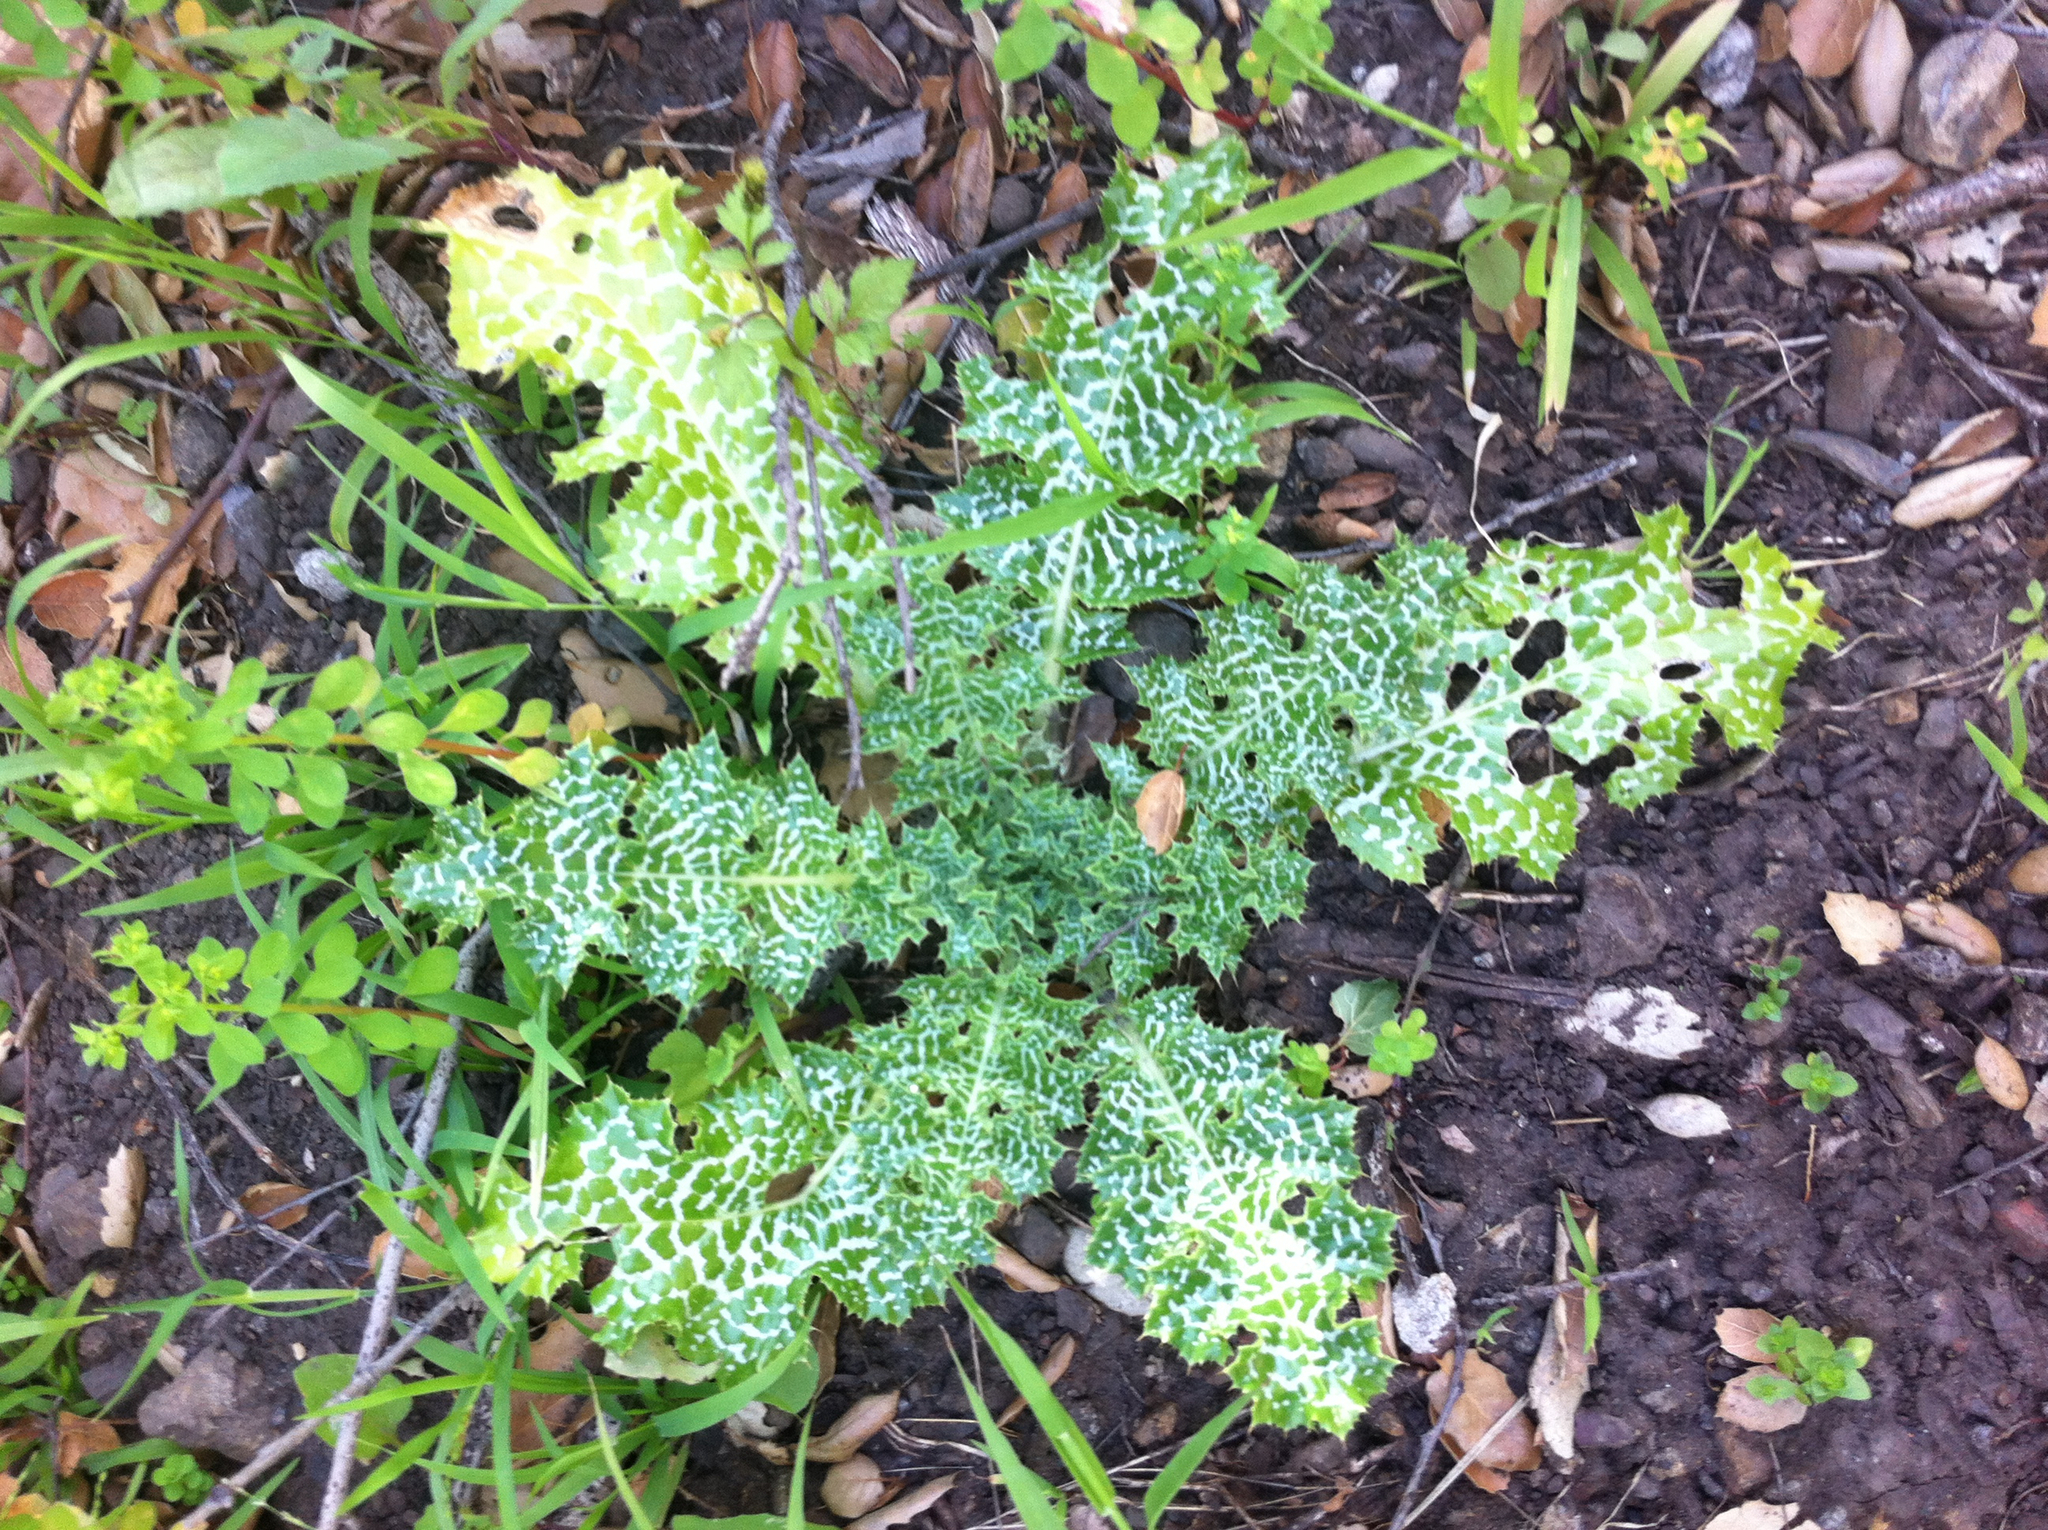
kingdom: Plantae
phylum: Tracheophyta
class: Magnoliopsida
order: Asterales
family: Asteraceae
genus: Silybum
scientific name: Silybum marianum
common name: Milk thistle
